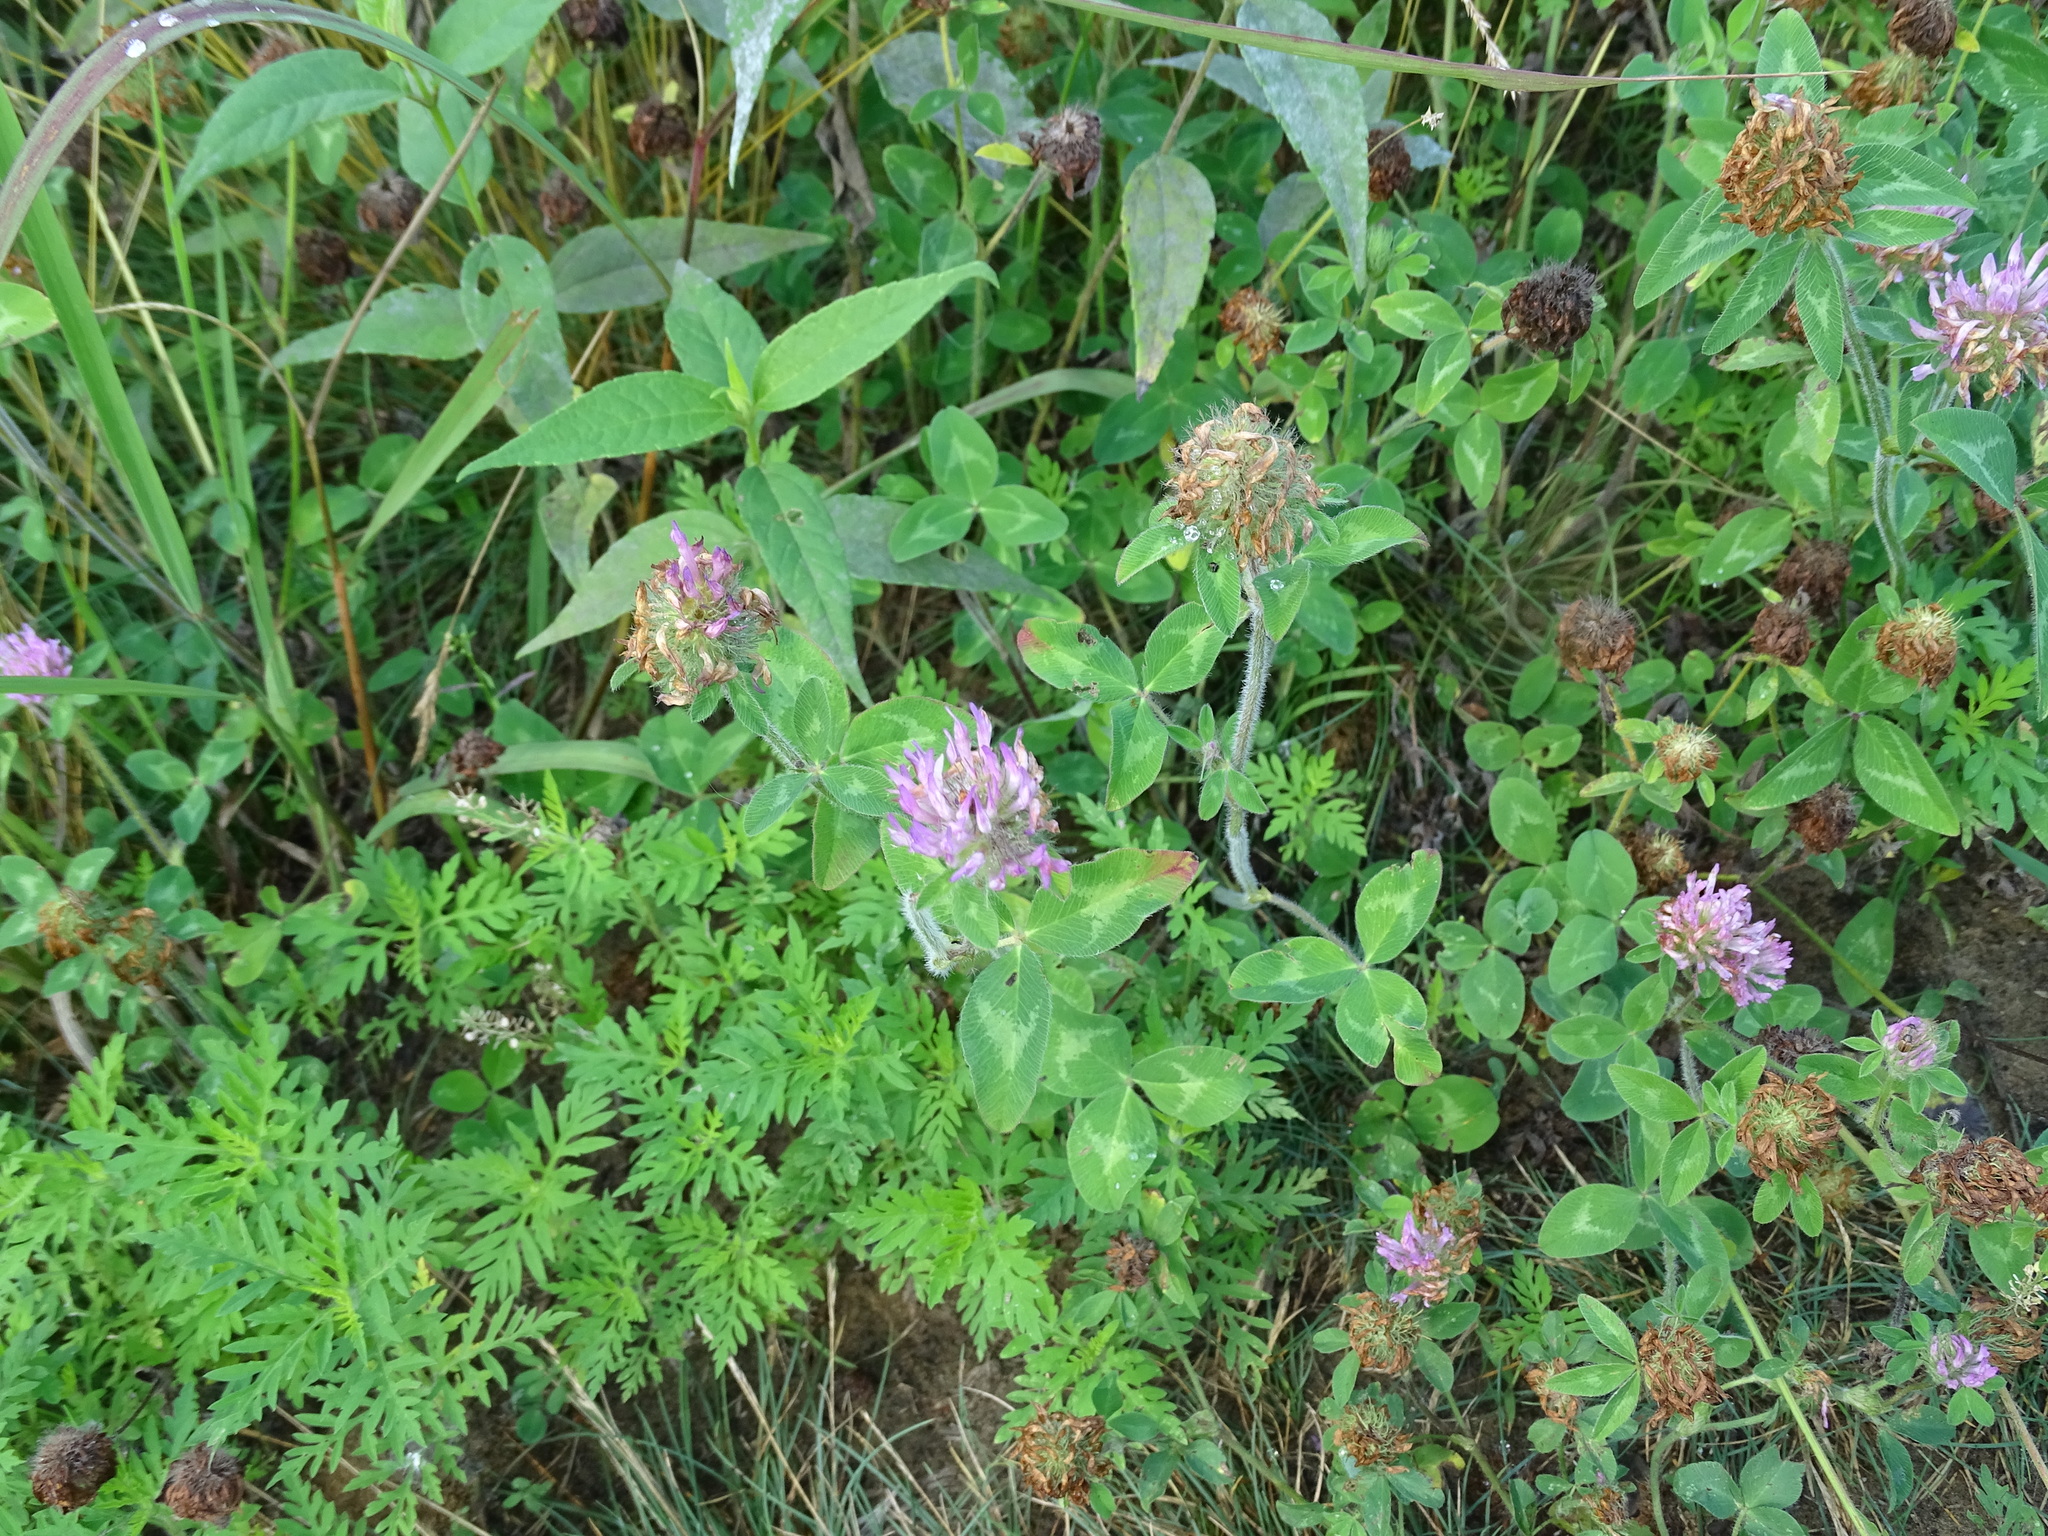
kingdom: Plantae
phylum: Tracheophyta
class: Magnoliopsida
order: Fabales
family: Fabaceae
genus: Trifolium
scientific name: Trifolium pratense
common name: Red clover
